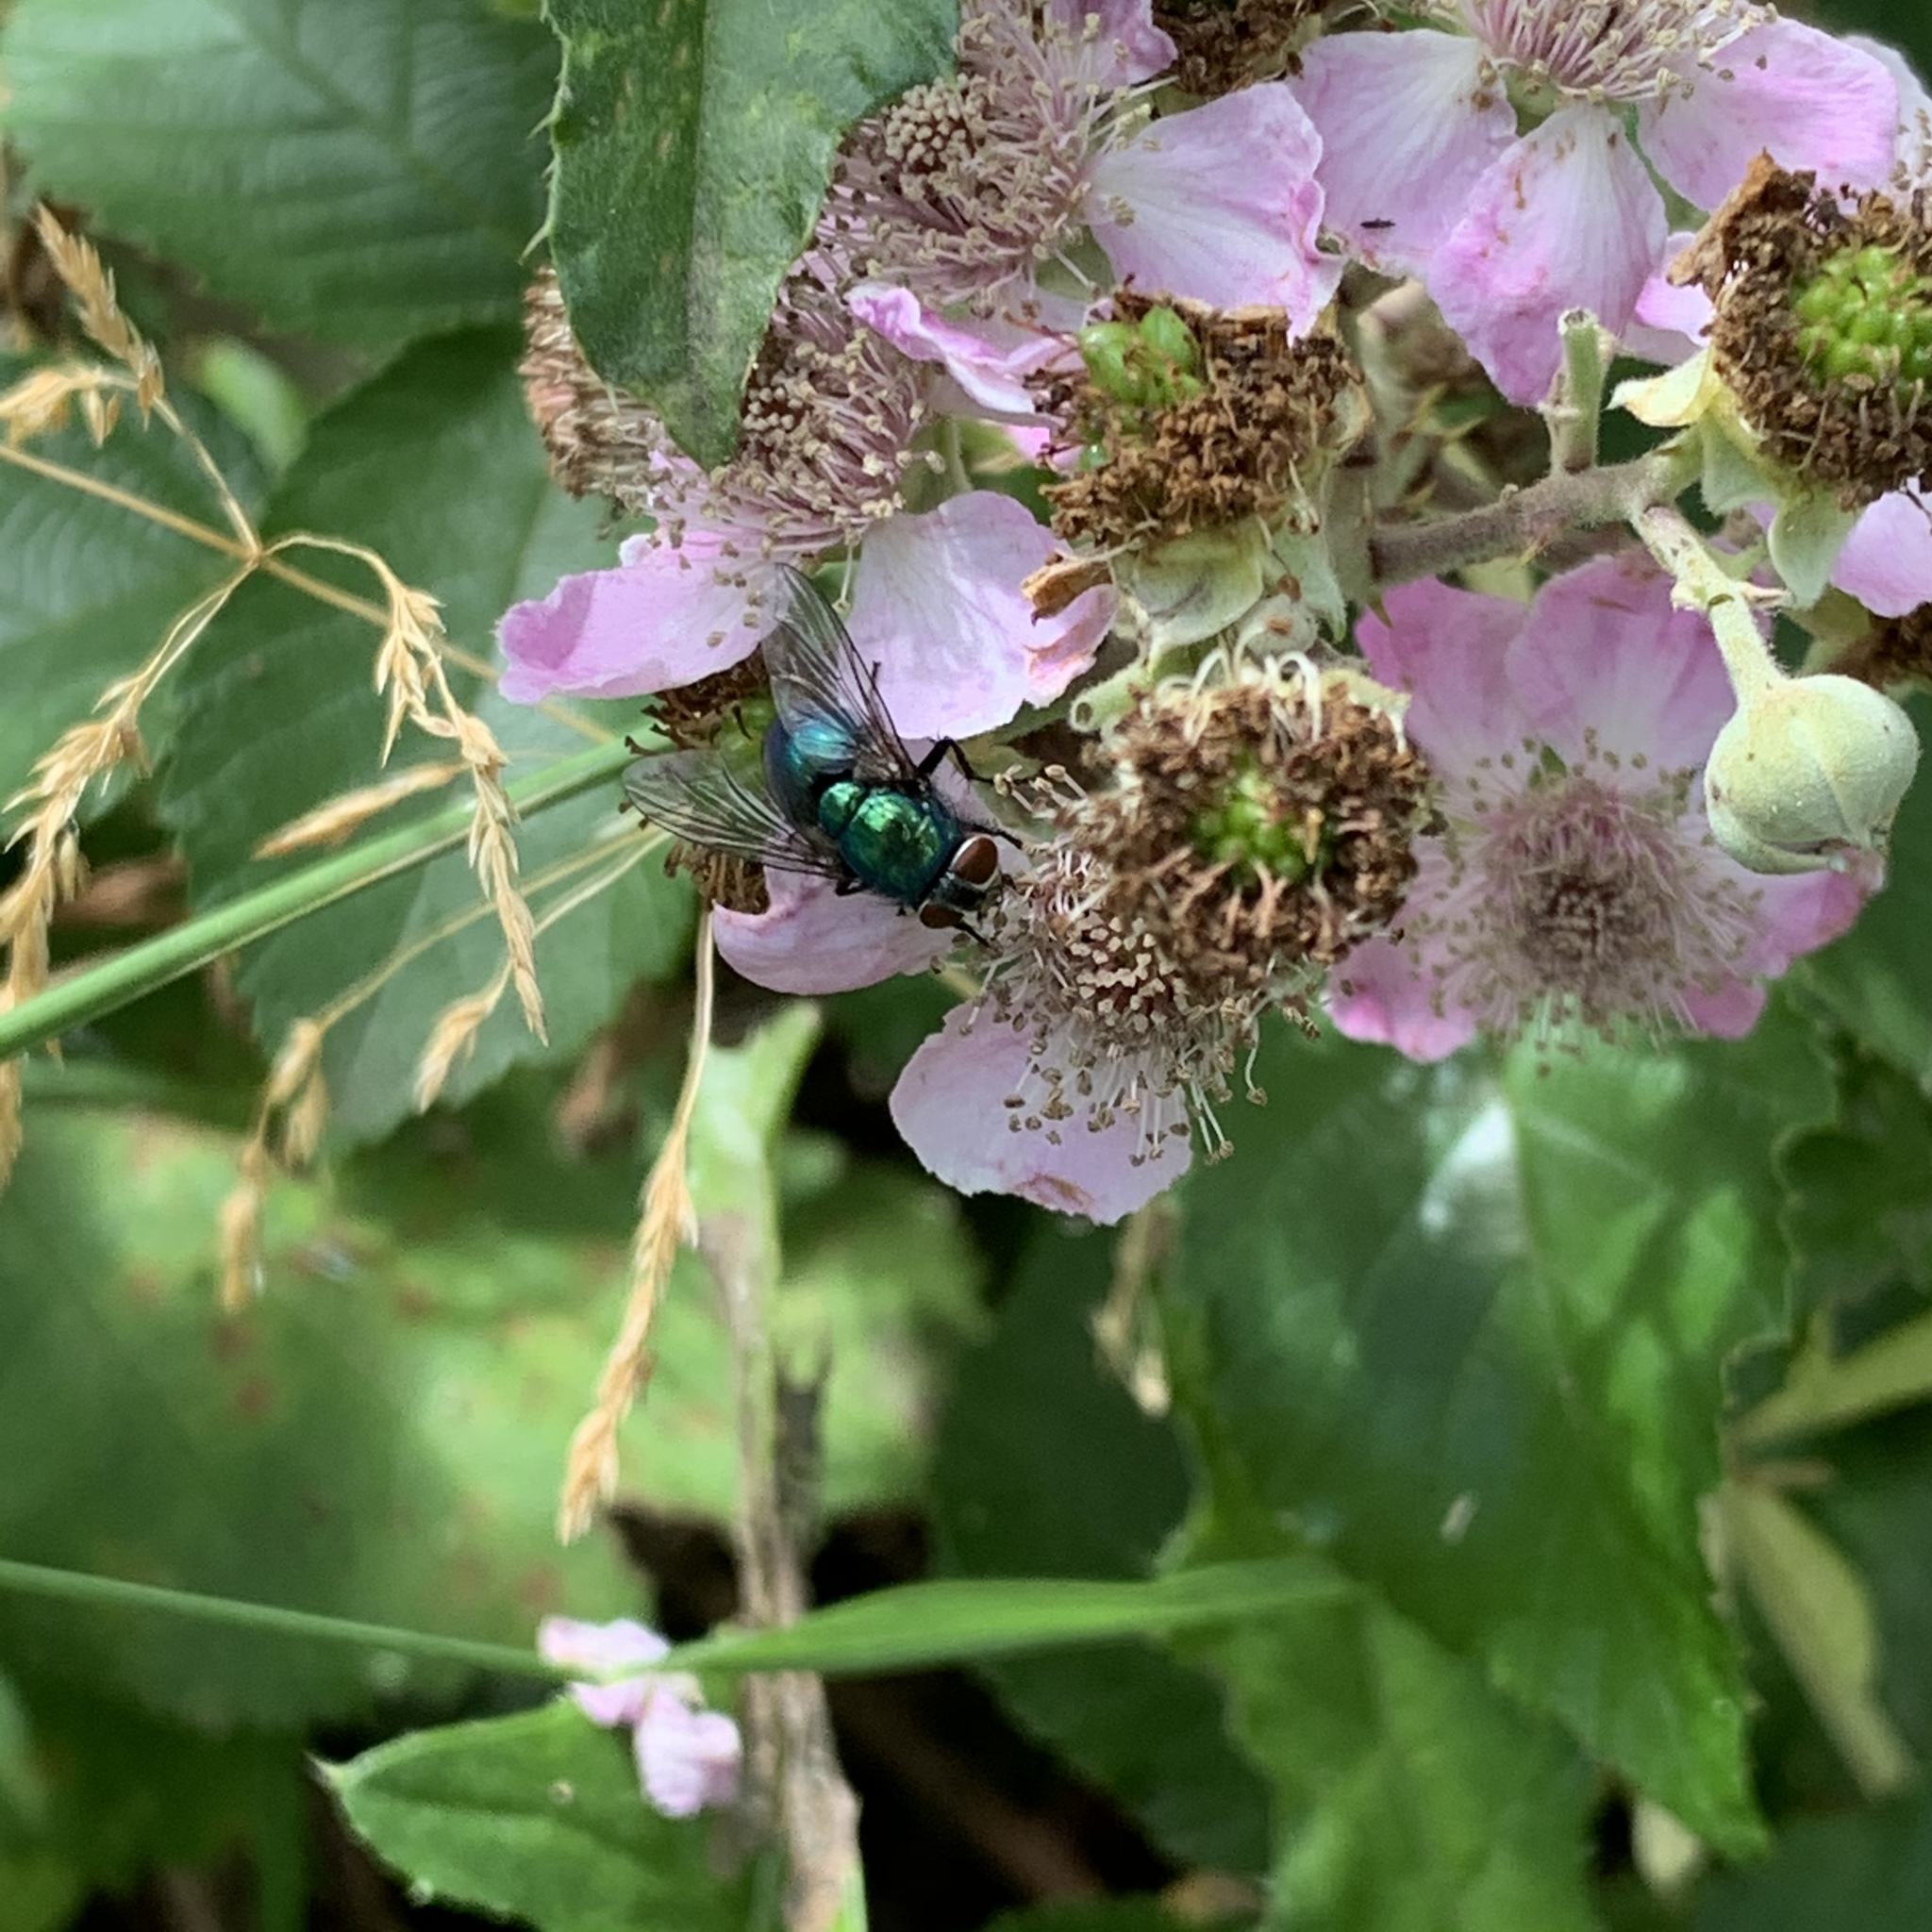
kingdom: Animalia
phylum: Arthropoda
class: Insecta
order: Diptera
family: Calliphoridae
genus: Lucilia
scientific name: Lucilia
